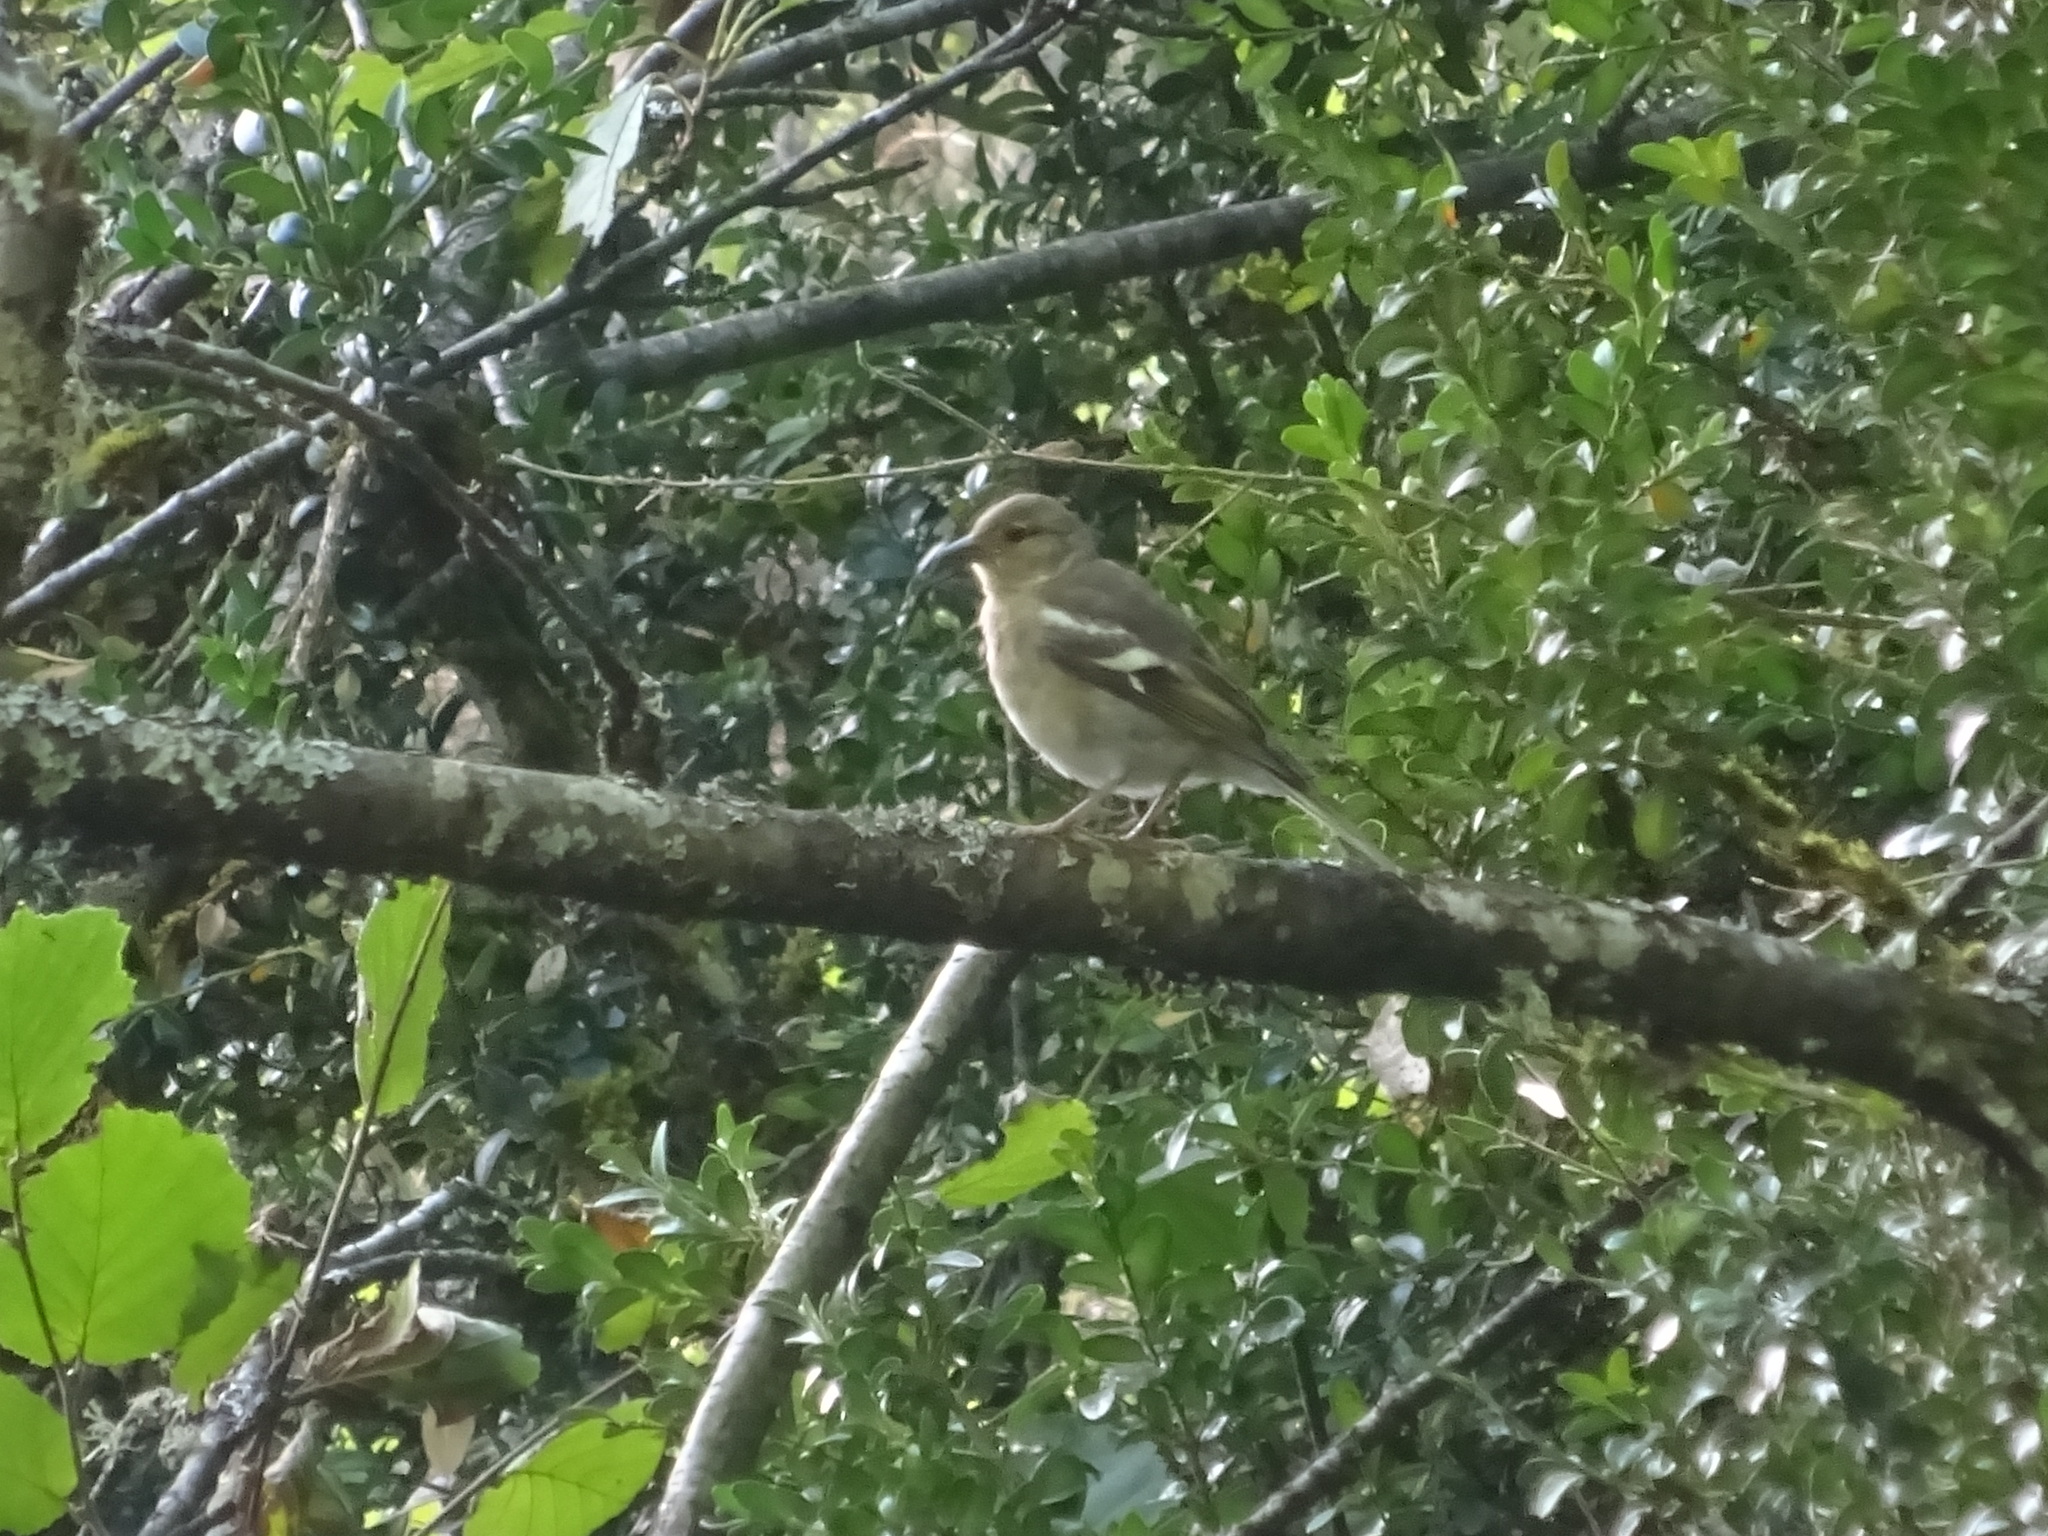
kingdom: Animalia
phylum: Chordata
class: Aves
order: Passeriformes
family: Fringillidae
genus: Fringilla
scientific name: Fringilla coelebs
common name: Common chaffinch
